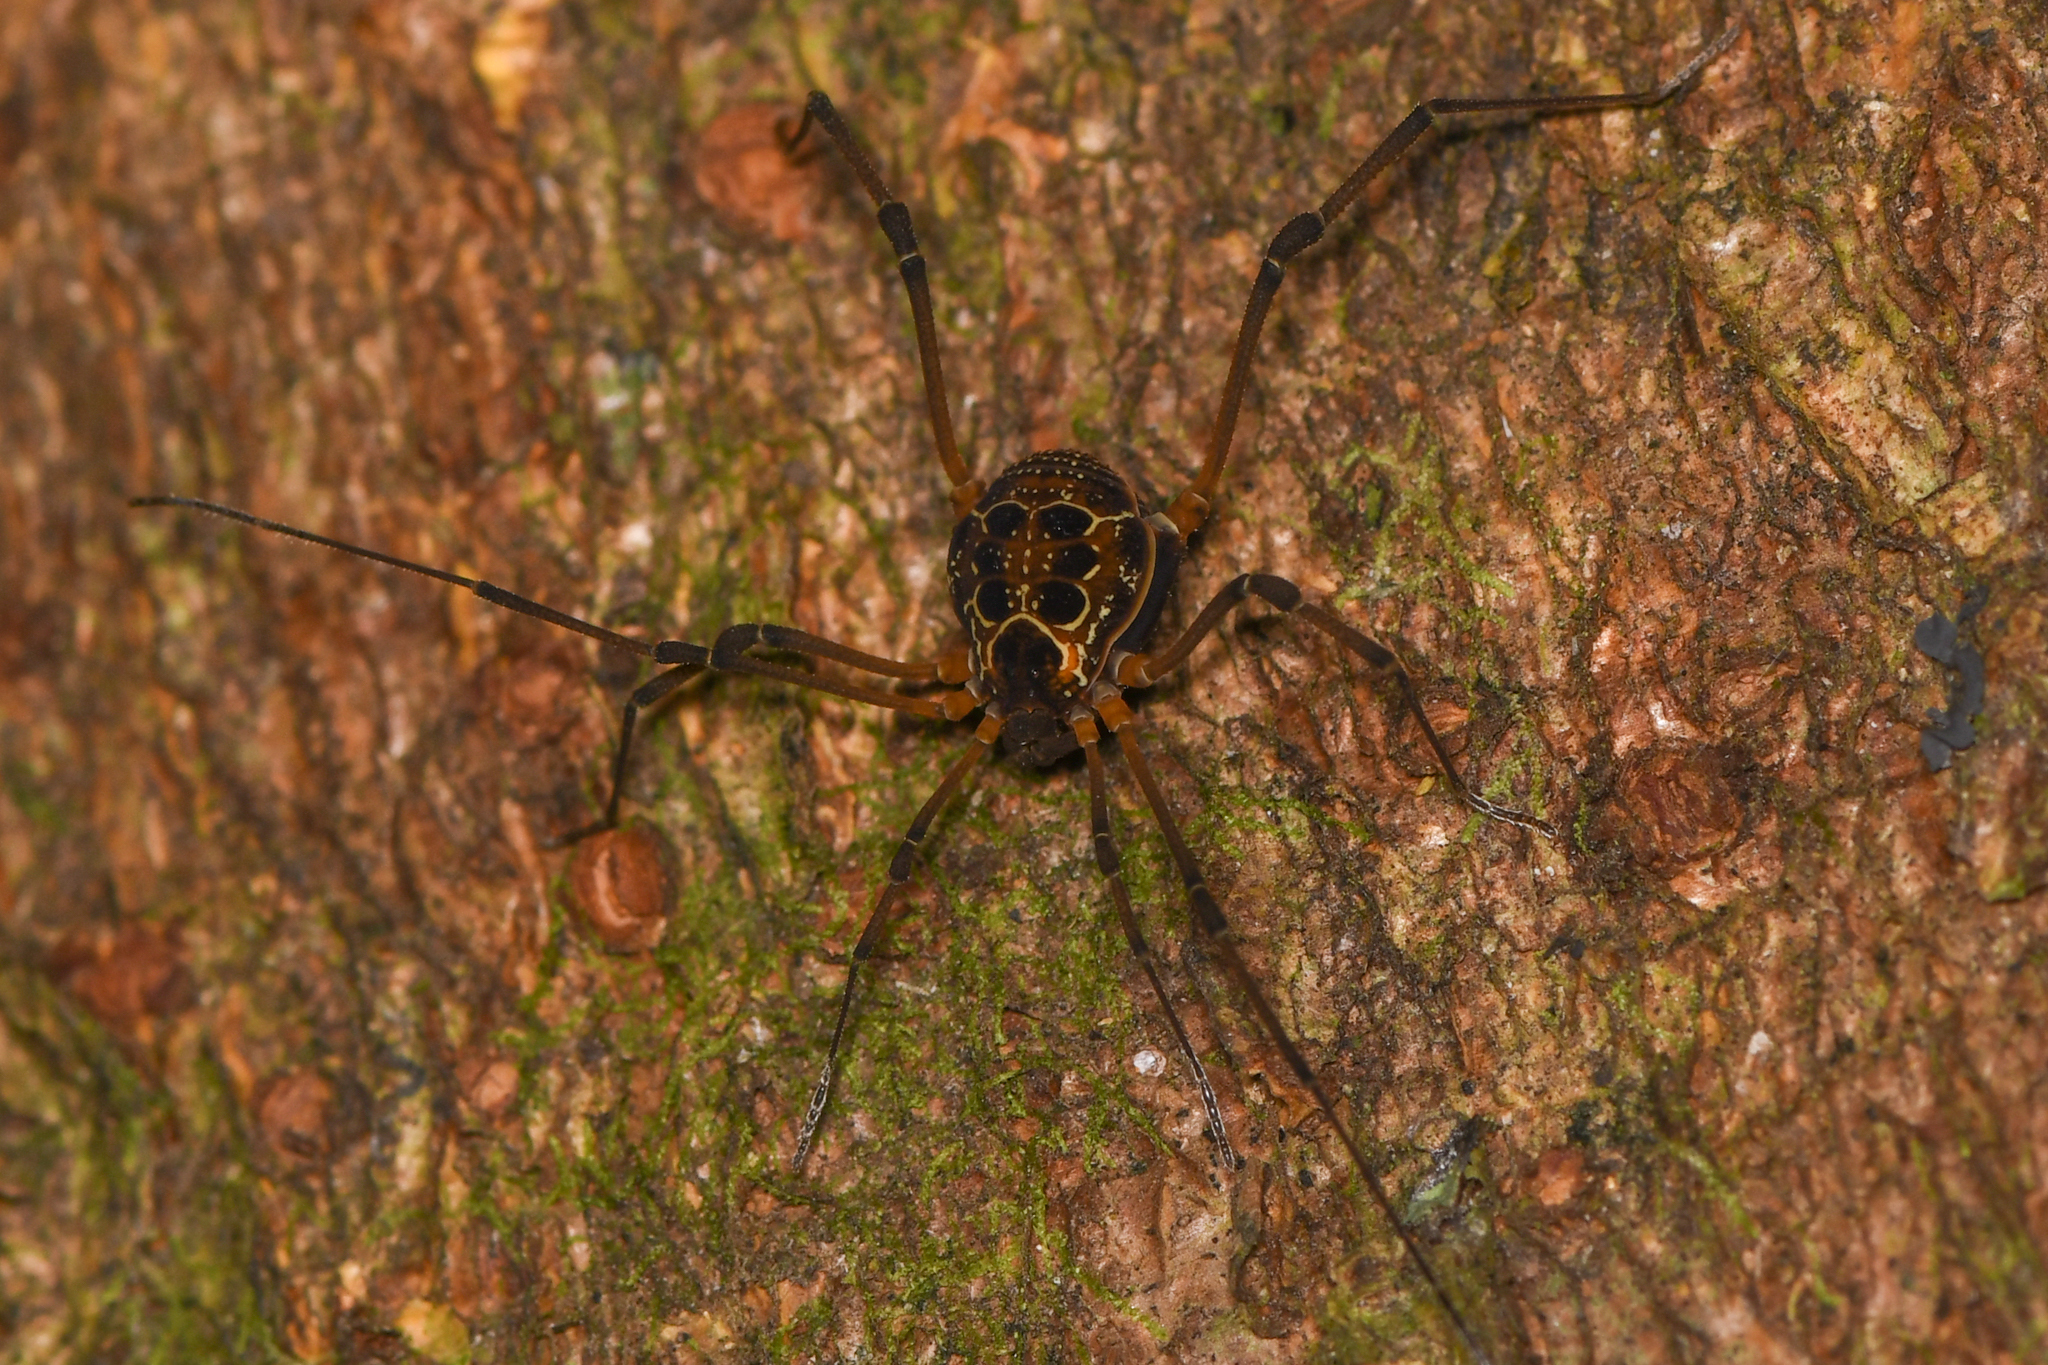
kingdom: Animalia
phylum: Arthropoda
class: Arachnida
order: Opiliones
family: Cosmetidae
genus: Eucynortula
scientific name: Eucynortula albipunctata
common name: Harvestmen
